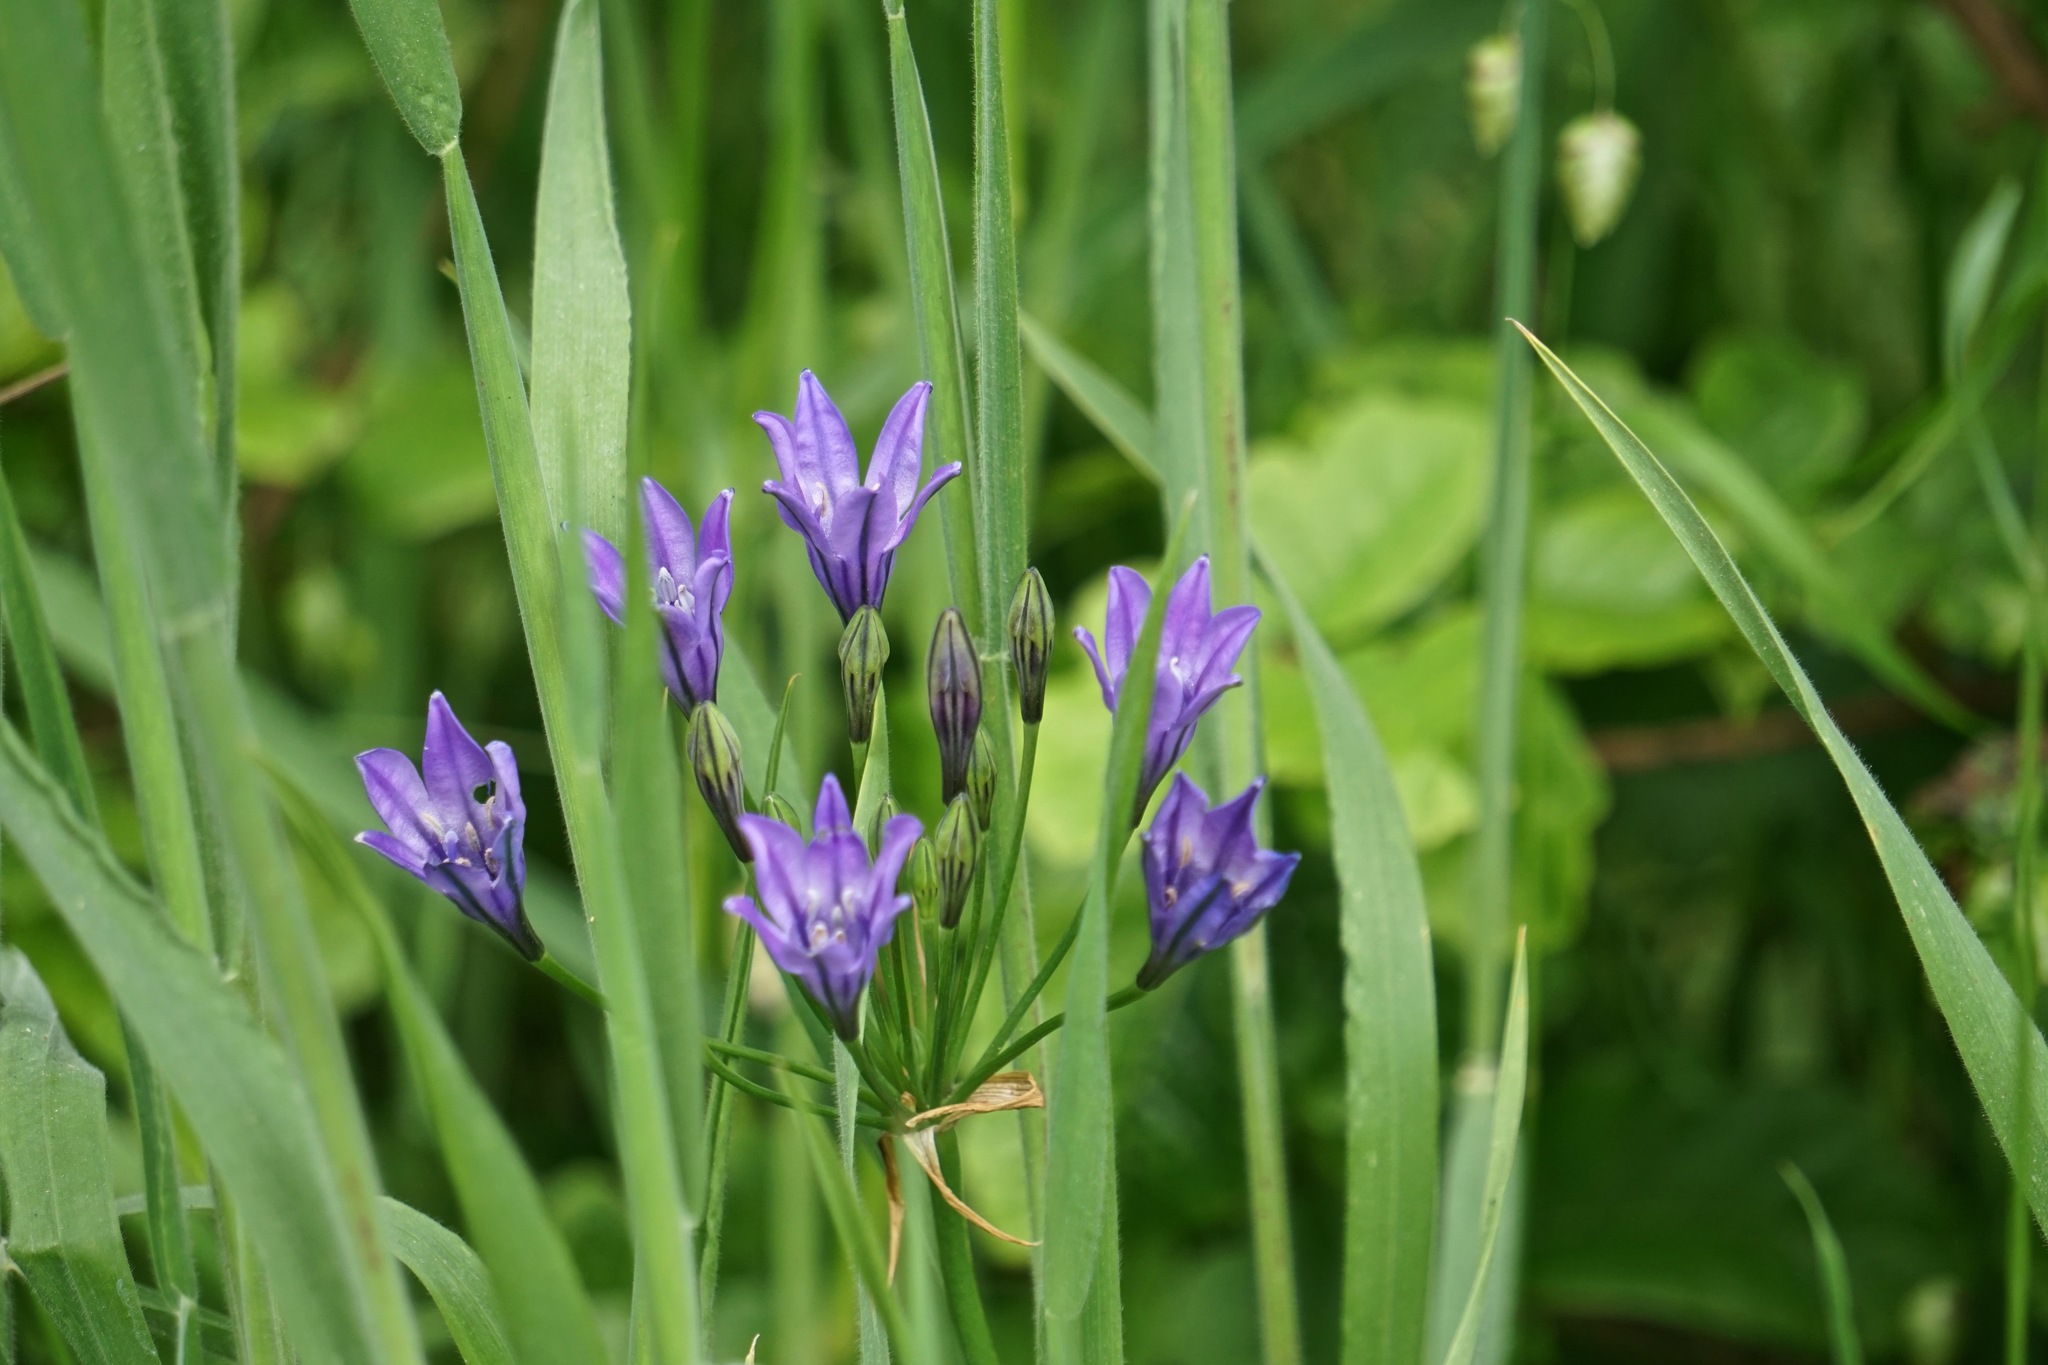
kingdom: Plantae
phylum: Tracheophyta
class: Liliopsida
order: Asparagales
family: Asparagaceae
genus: Triteleia
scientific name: Triteleia laxa
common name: Triplet-lily
